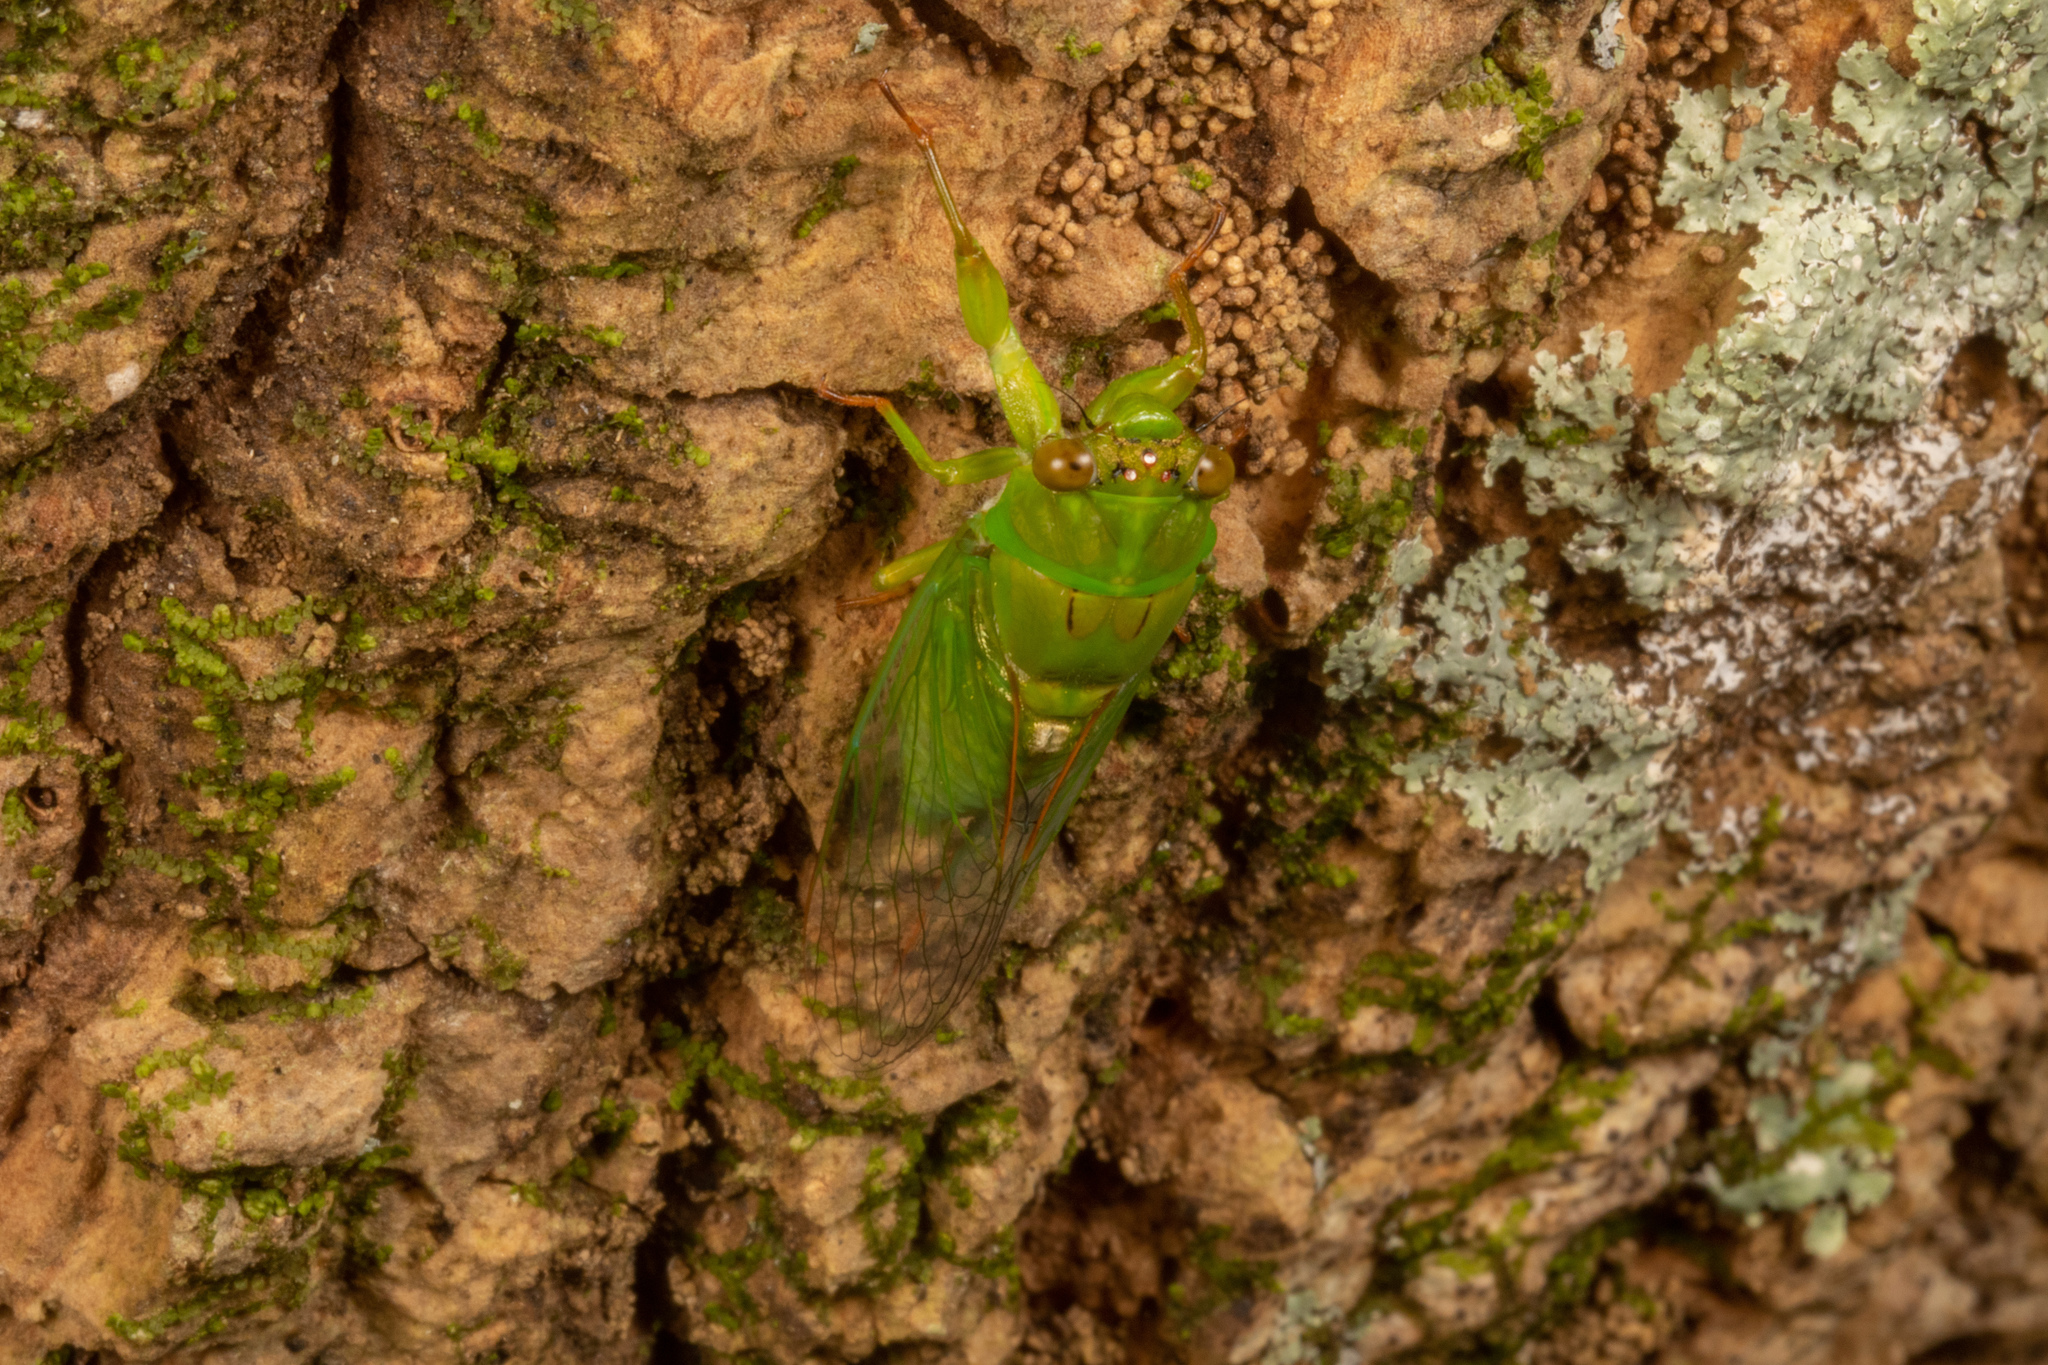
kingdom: Animalia
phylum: Arthropoda
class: Insecta
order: Hemiptera
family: Cicadidae
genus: Kikihia
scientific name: Kikihia ochrina
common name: April green cicada
